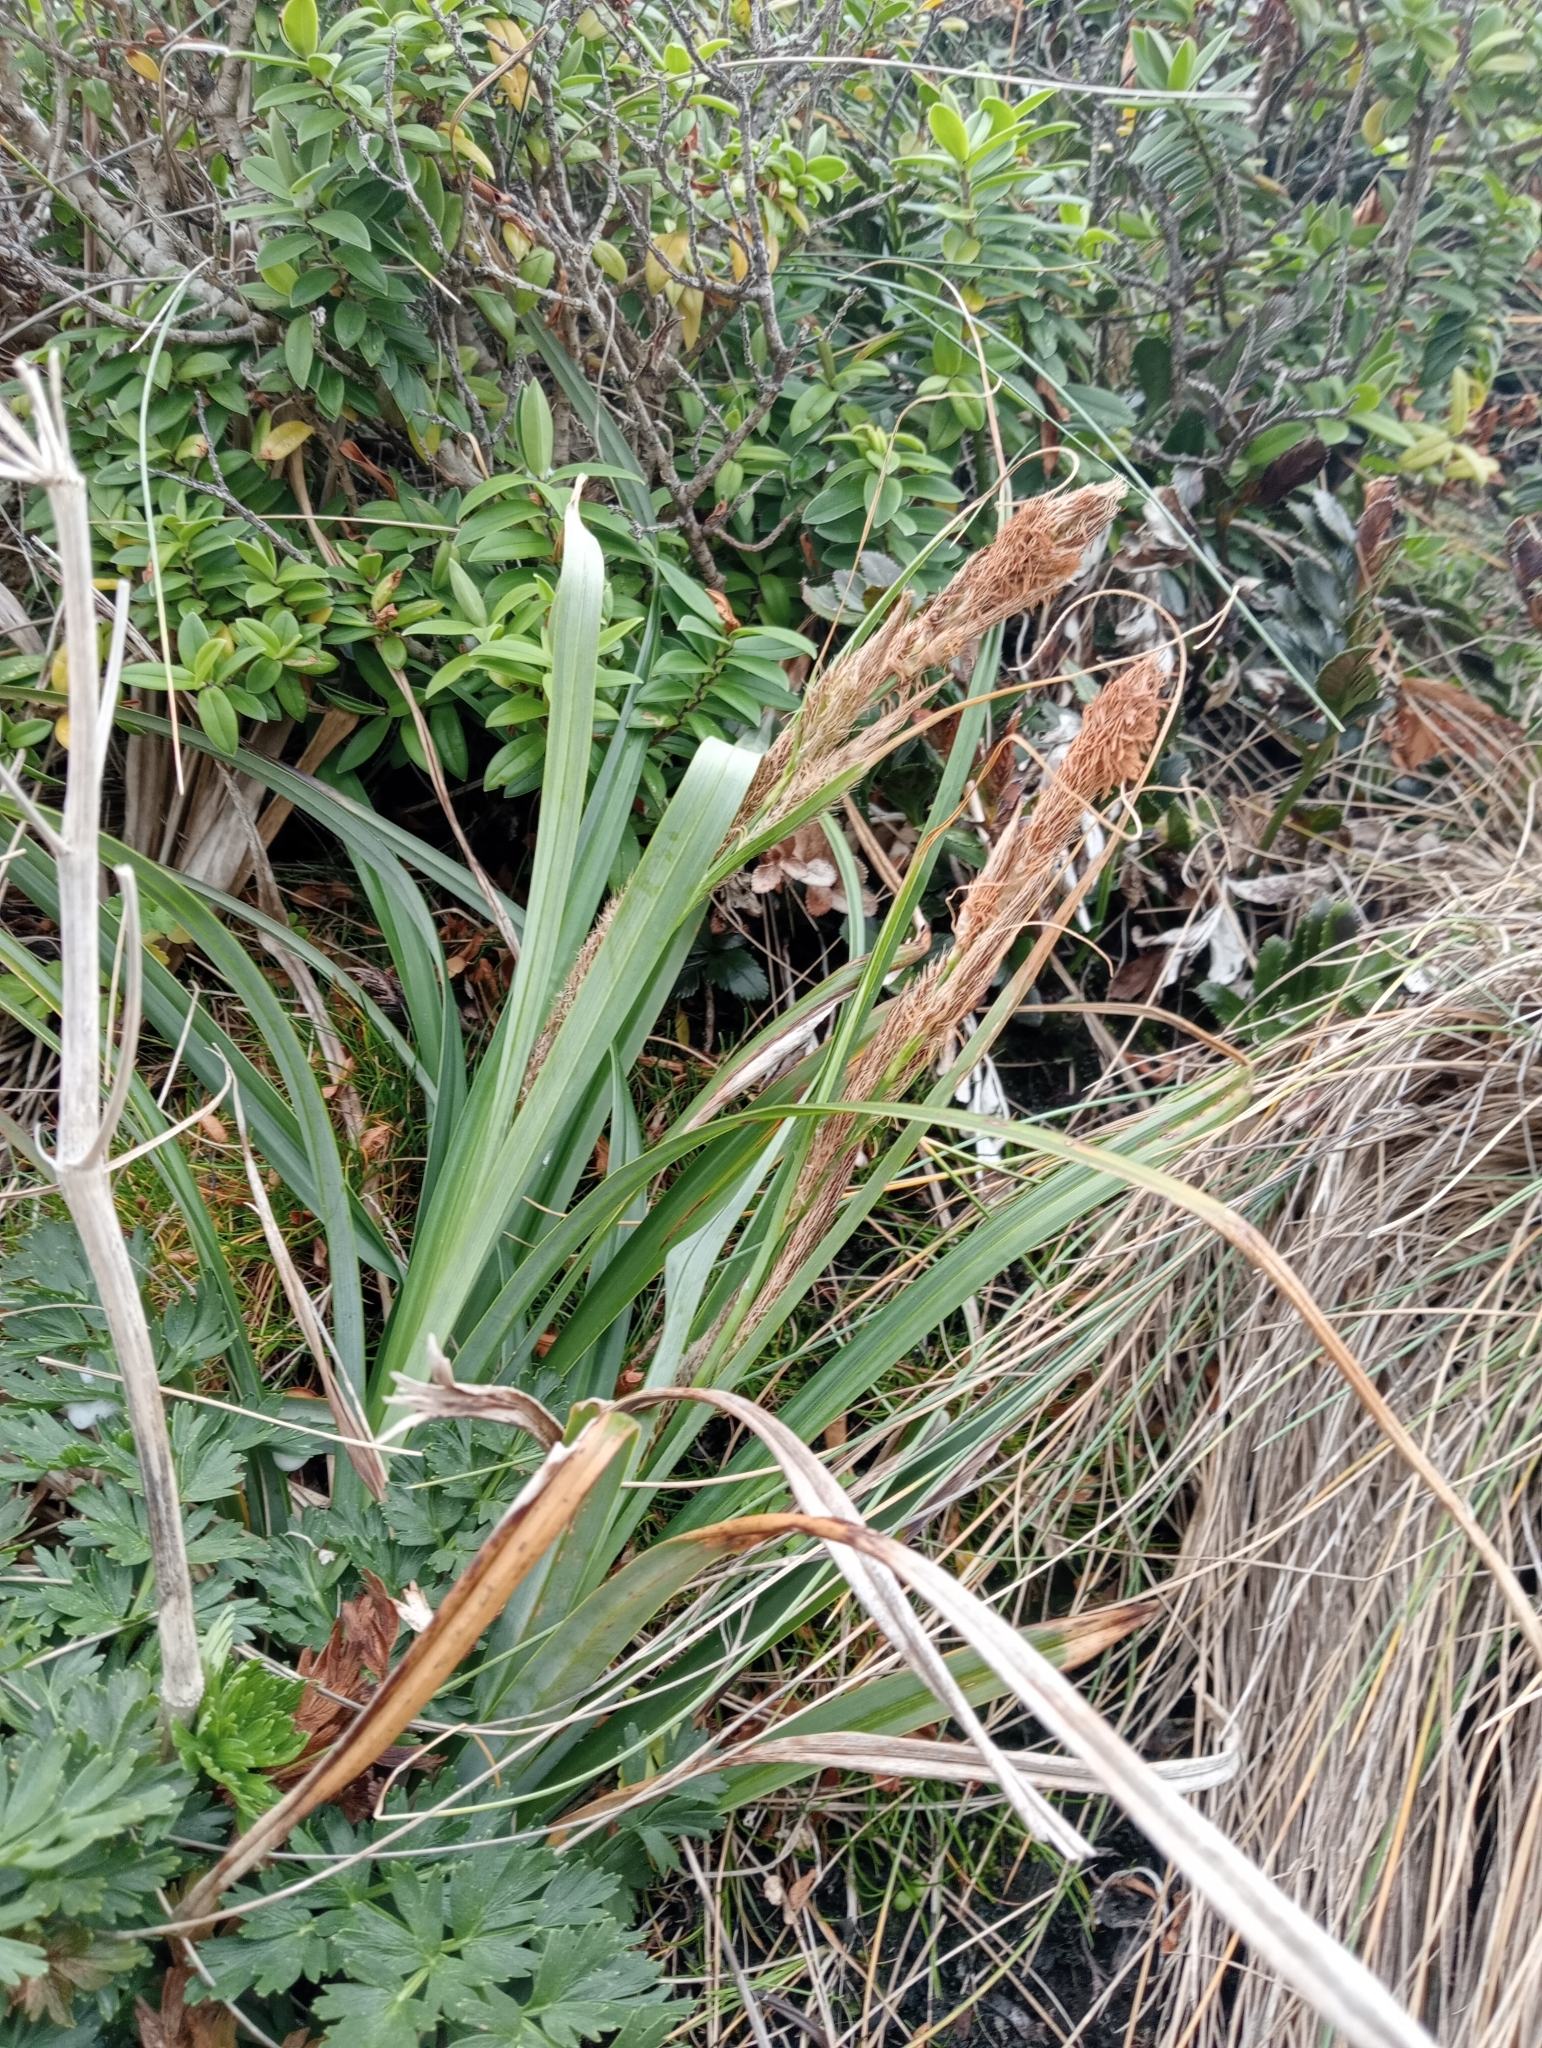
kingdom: Plantae
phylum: Tracheophyta
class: Liliopsida
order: Poales
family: Cyperaceae
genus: Carex
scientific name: Carex trifida
